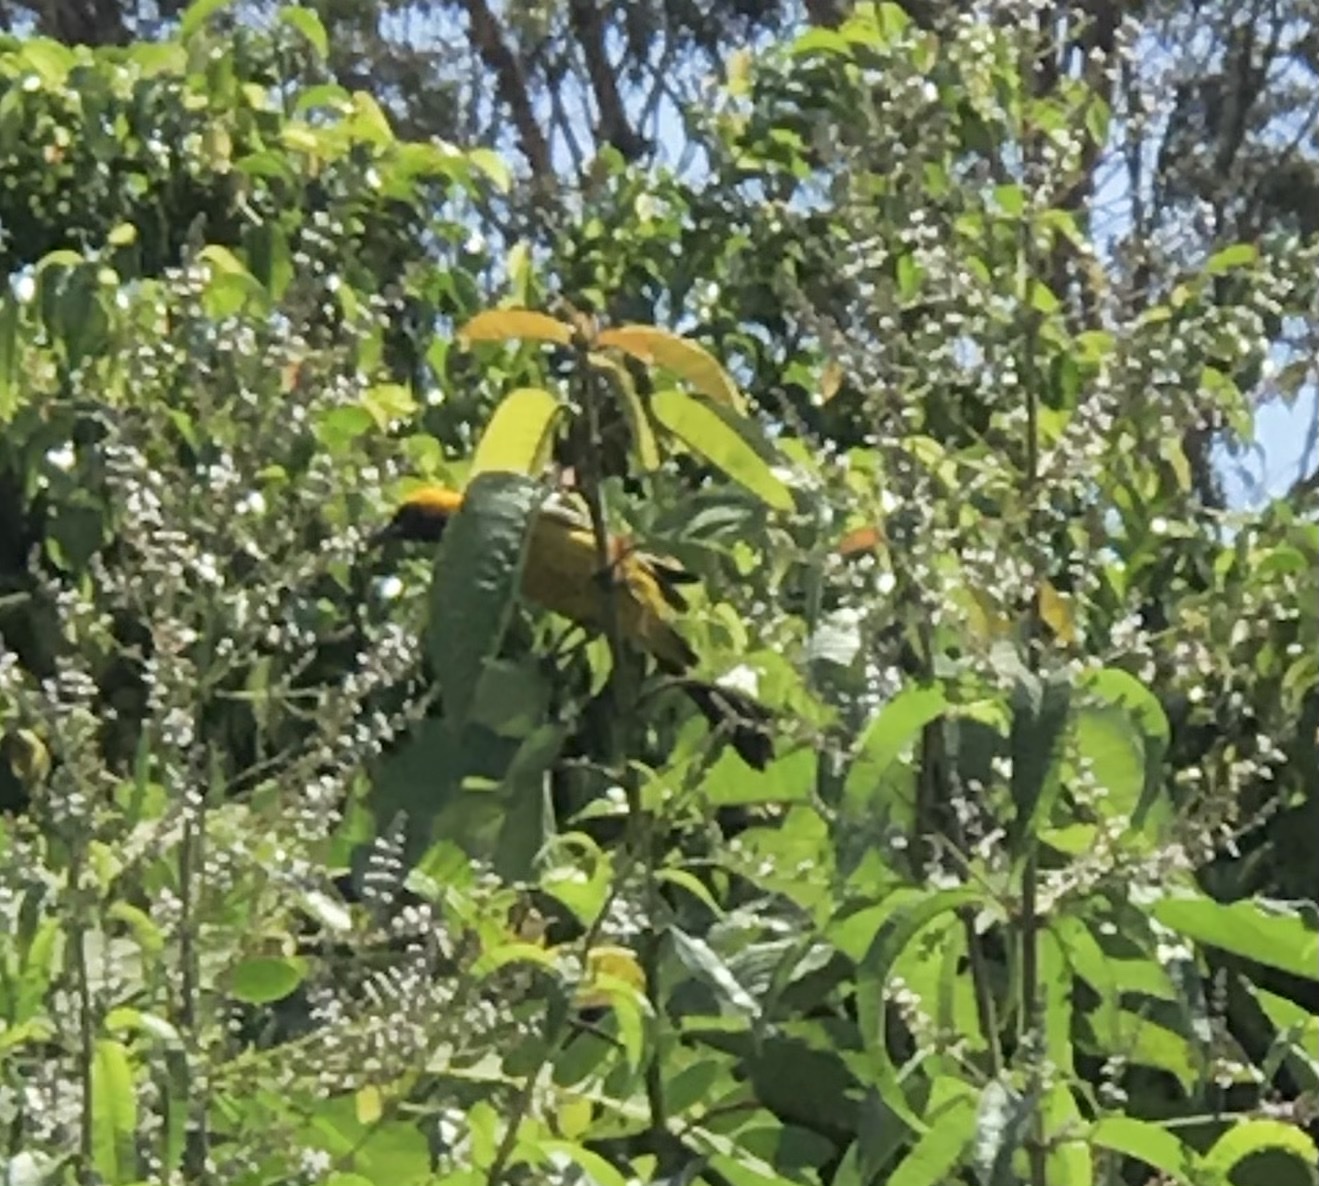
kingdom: Animalia
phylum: Chordata
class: Aves
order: Passeriformes
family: Icteridae
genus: Icterus
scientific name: Icterus cucullatus
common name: Hooded oriole
